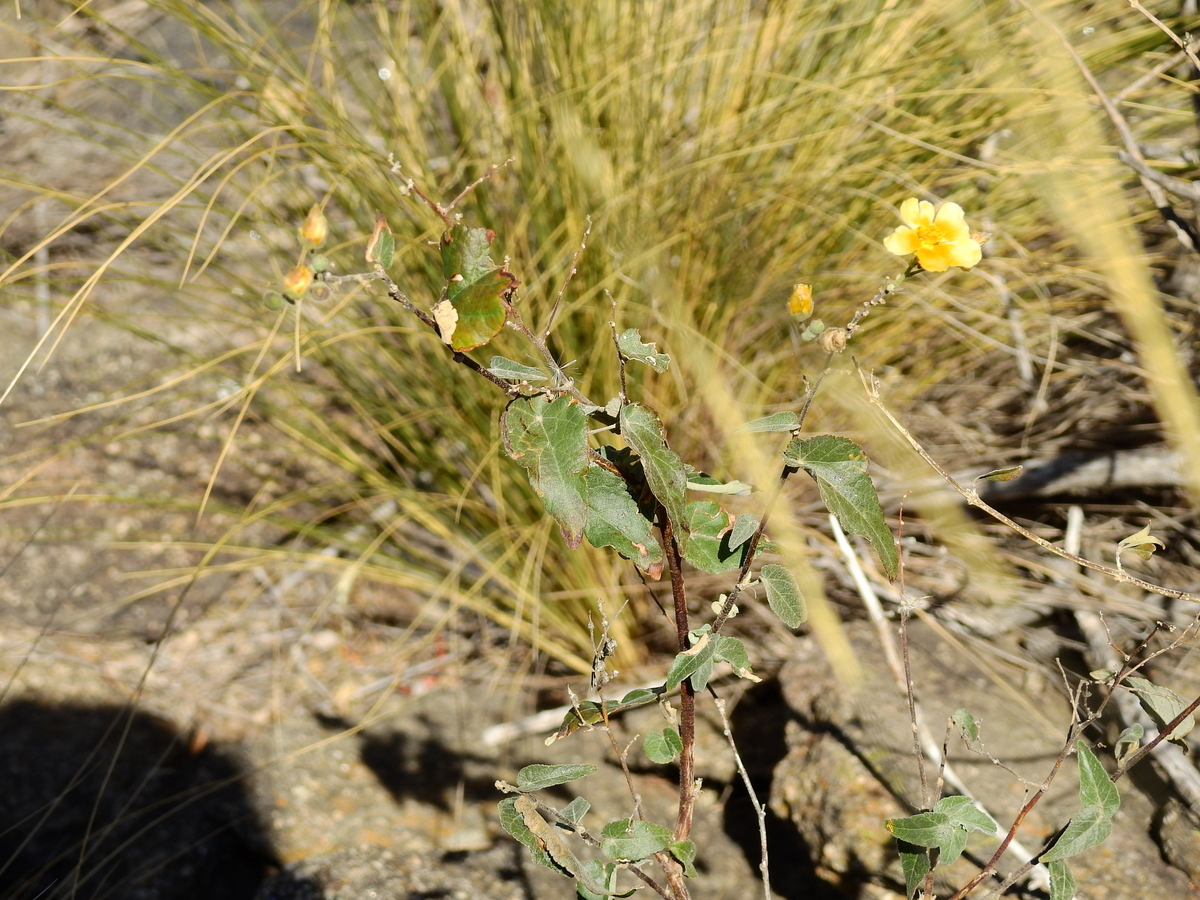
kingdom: Plantae
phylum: Tracheophyta
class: Magnoliopsida
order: Malvales
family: Malvaceae
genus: Wissadula
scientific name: Wissadula gymnanthemum
